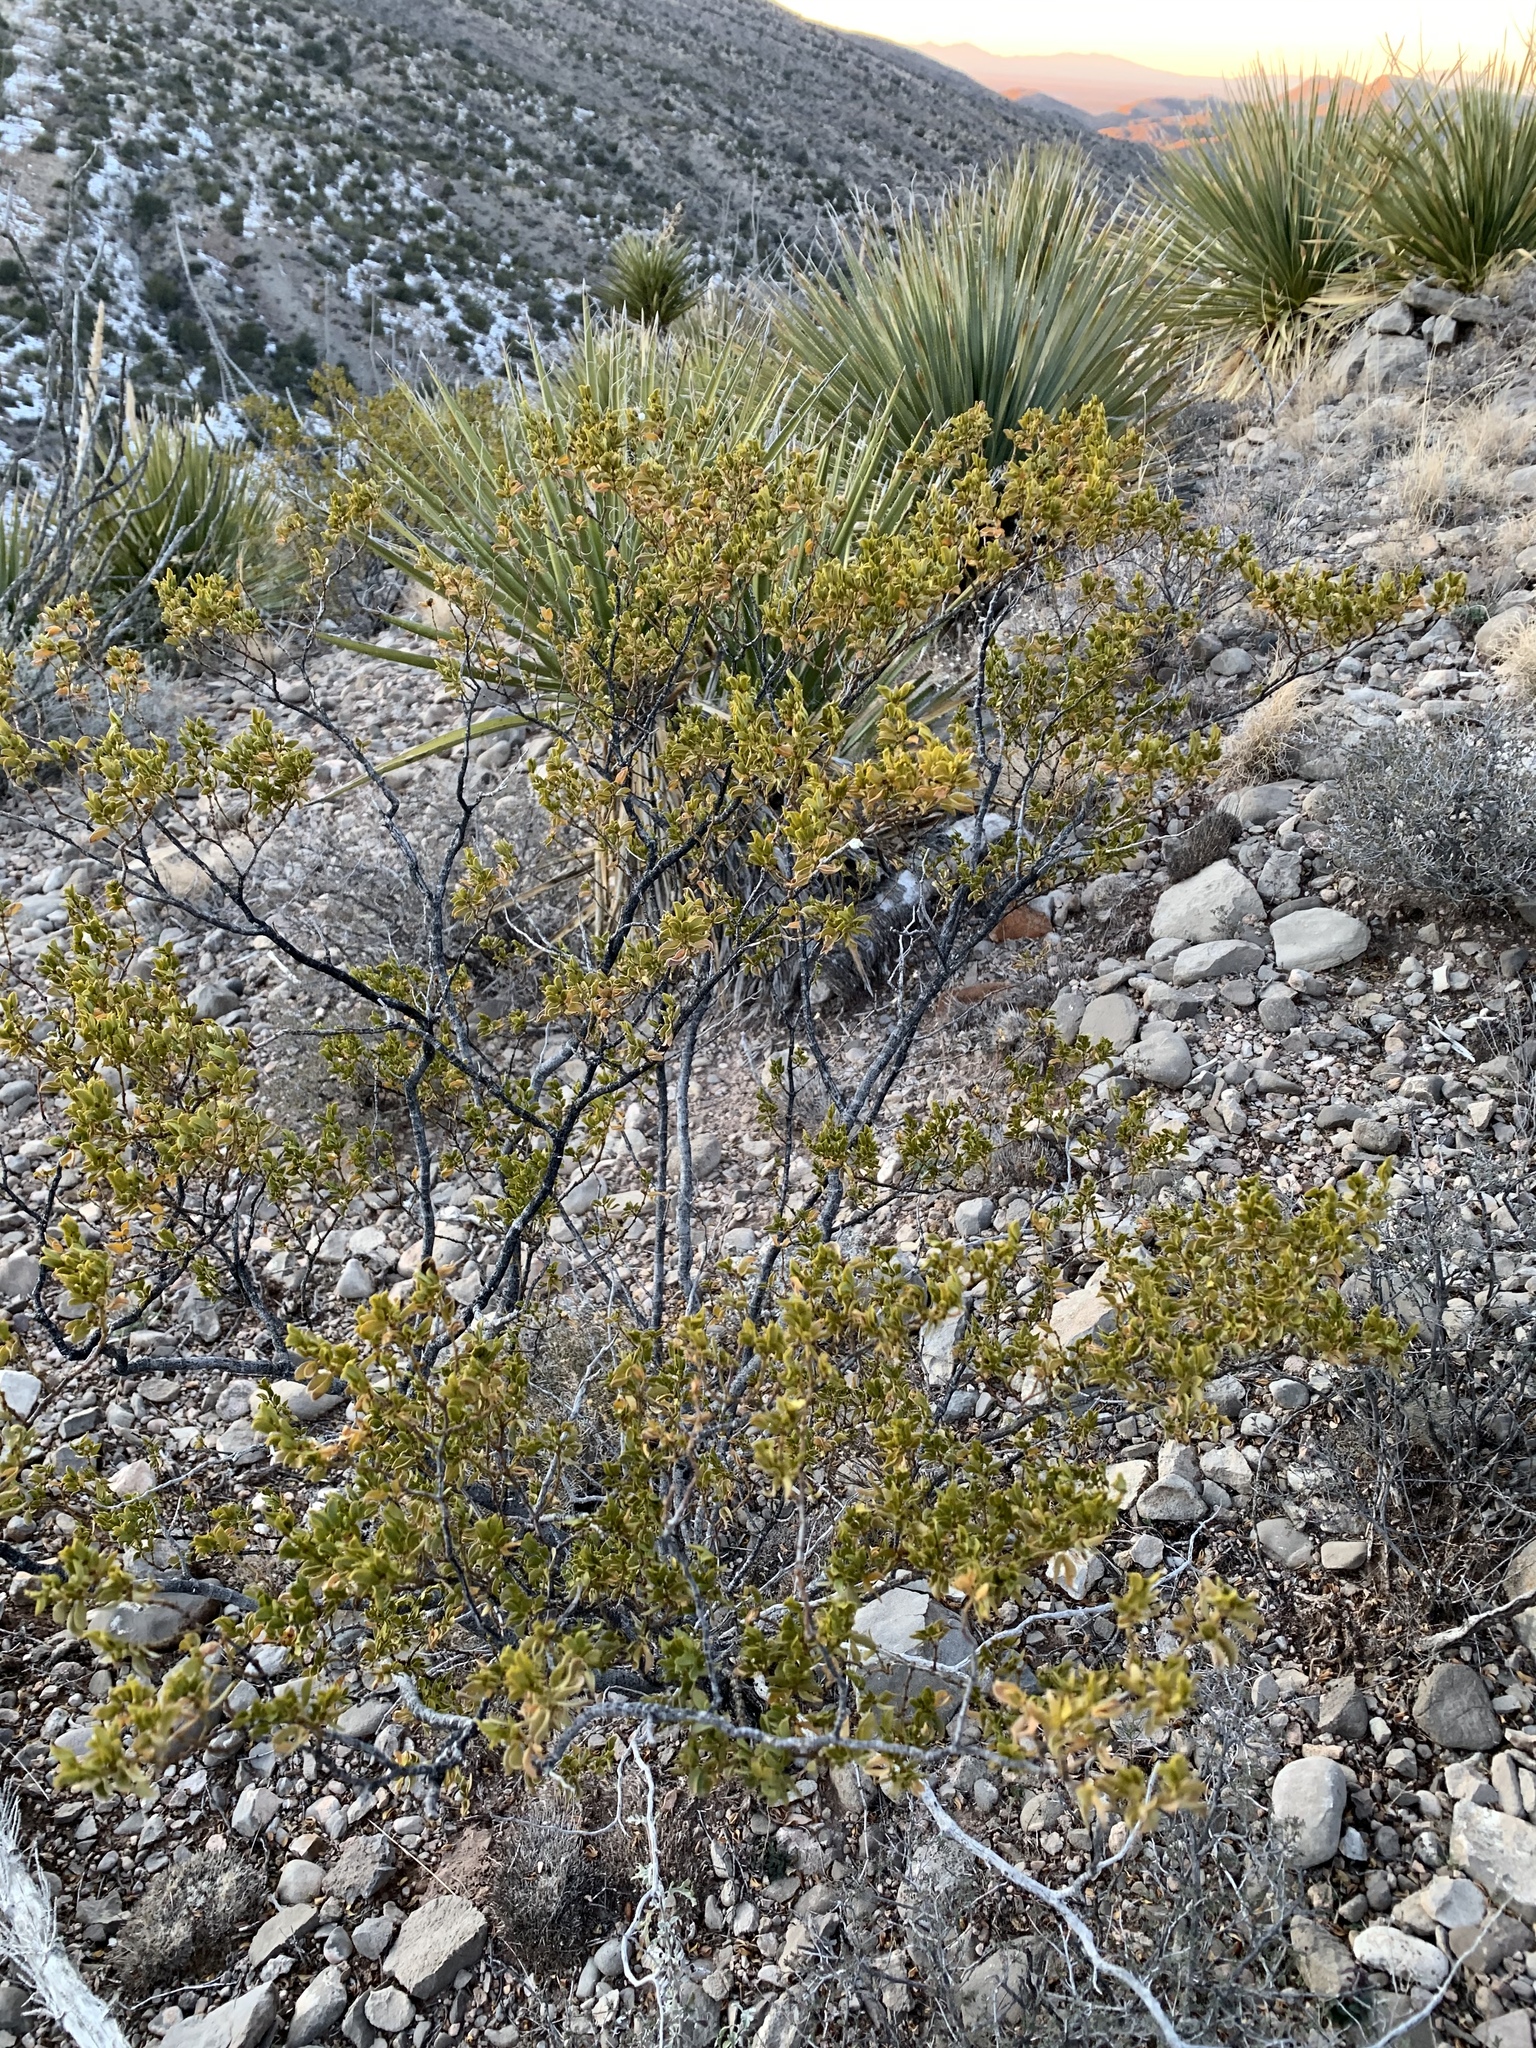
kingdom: Plantae
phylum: Tracheophyta
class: Magnoliopsida
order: Zygophyllales
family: Zygophyllaceae
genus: Larrea
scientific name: Larrea tridentata
